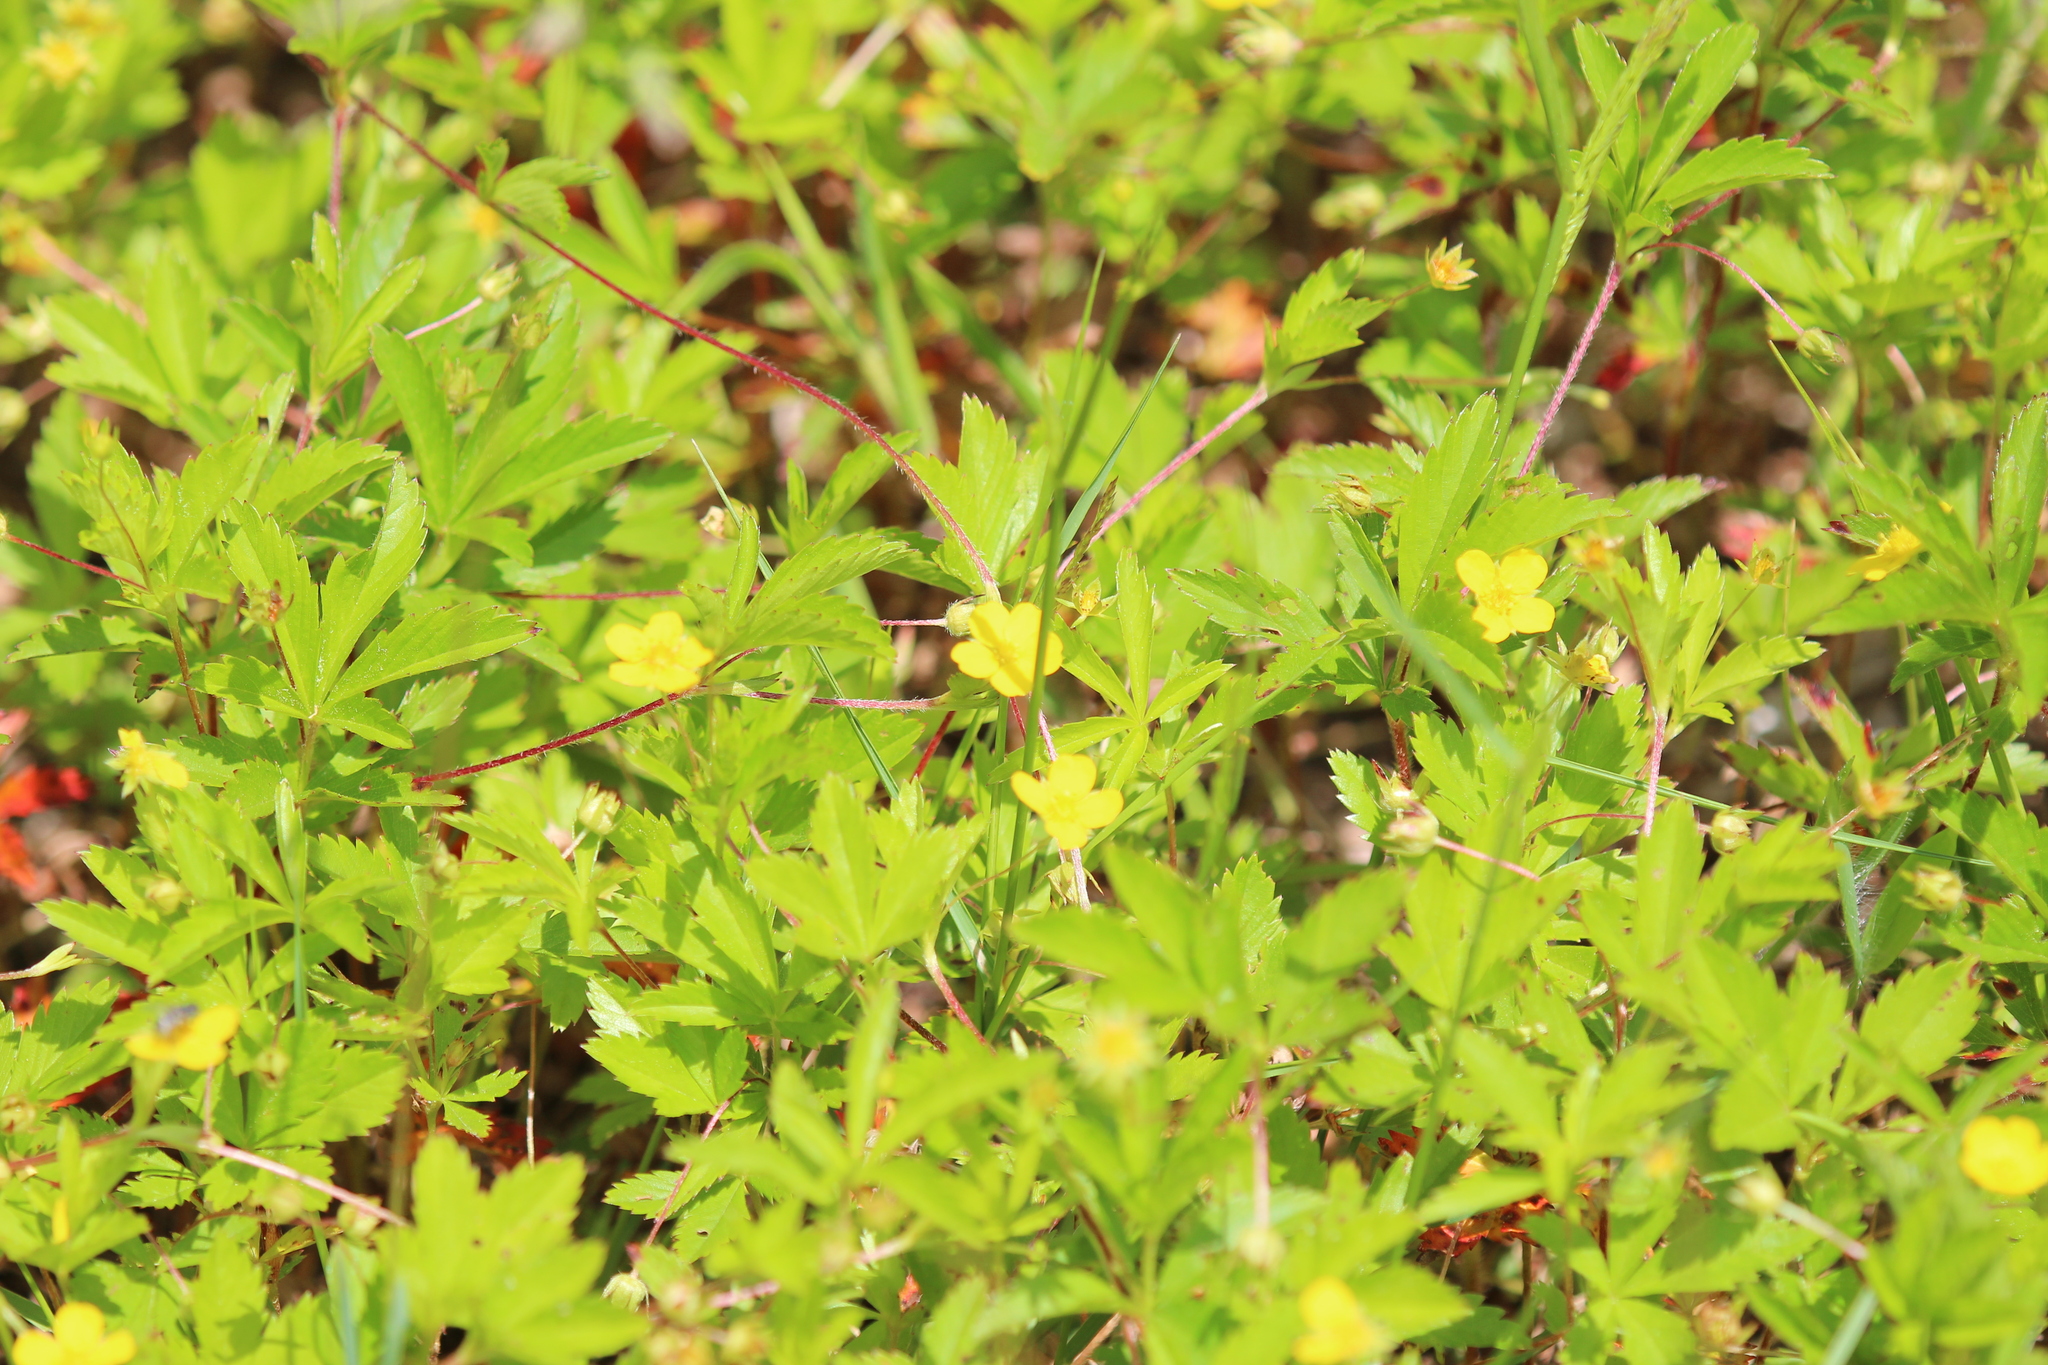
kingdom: Plantae
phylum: Tracheophyta
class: Magnoliopsida
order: Rosales
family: Rosaceae
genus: Potentilla
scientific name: Potentilla simplex
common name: Old field cinquefoil
